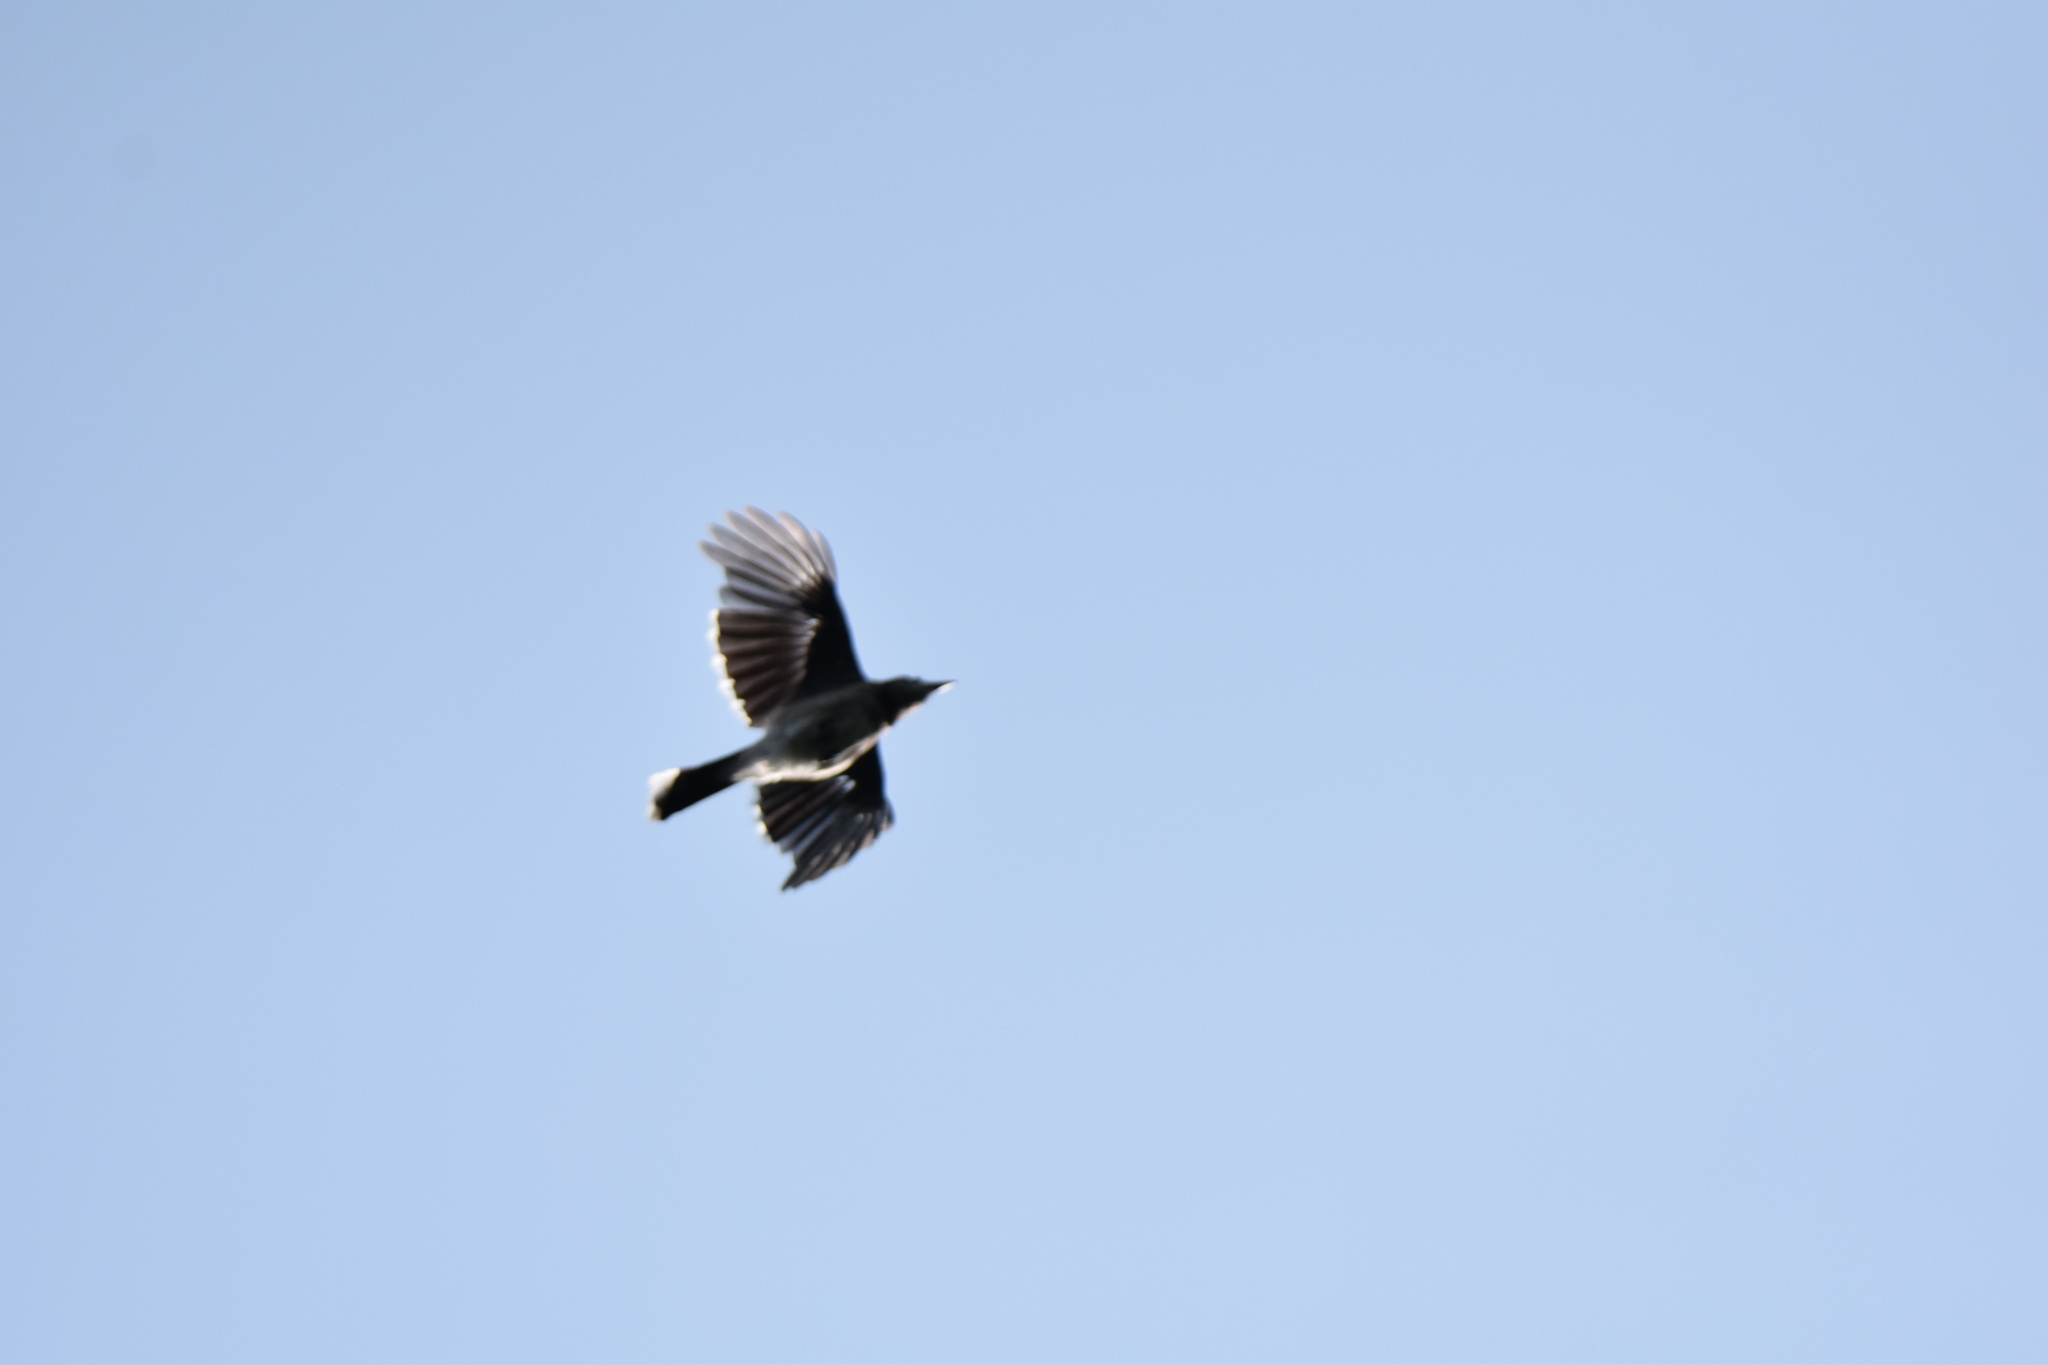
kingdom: Animalia
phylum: Chordata
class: Aves
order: Passeriformes
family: Corvidae
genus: Cyanocitta
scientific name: Cyanocitta cristata
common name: Blue jay
